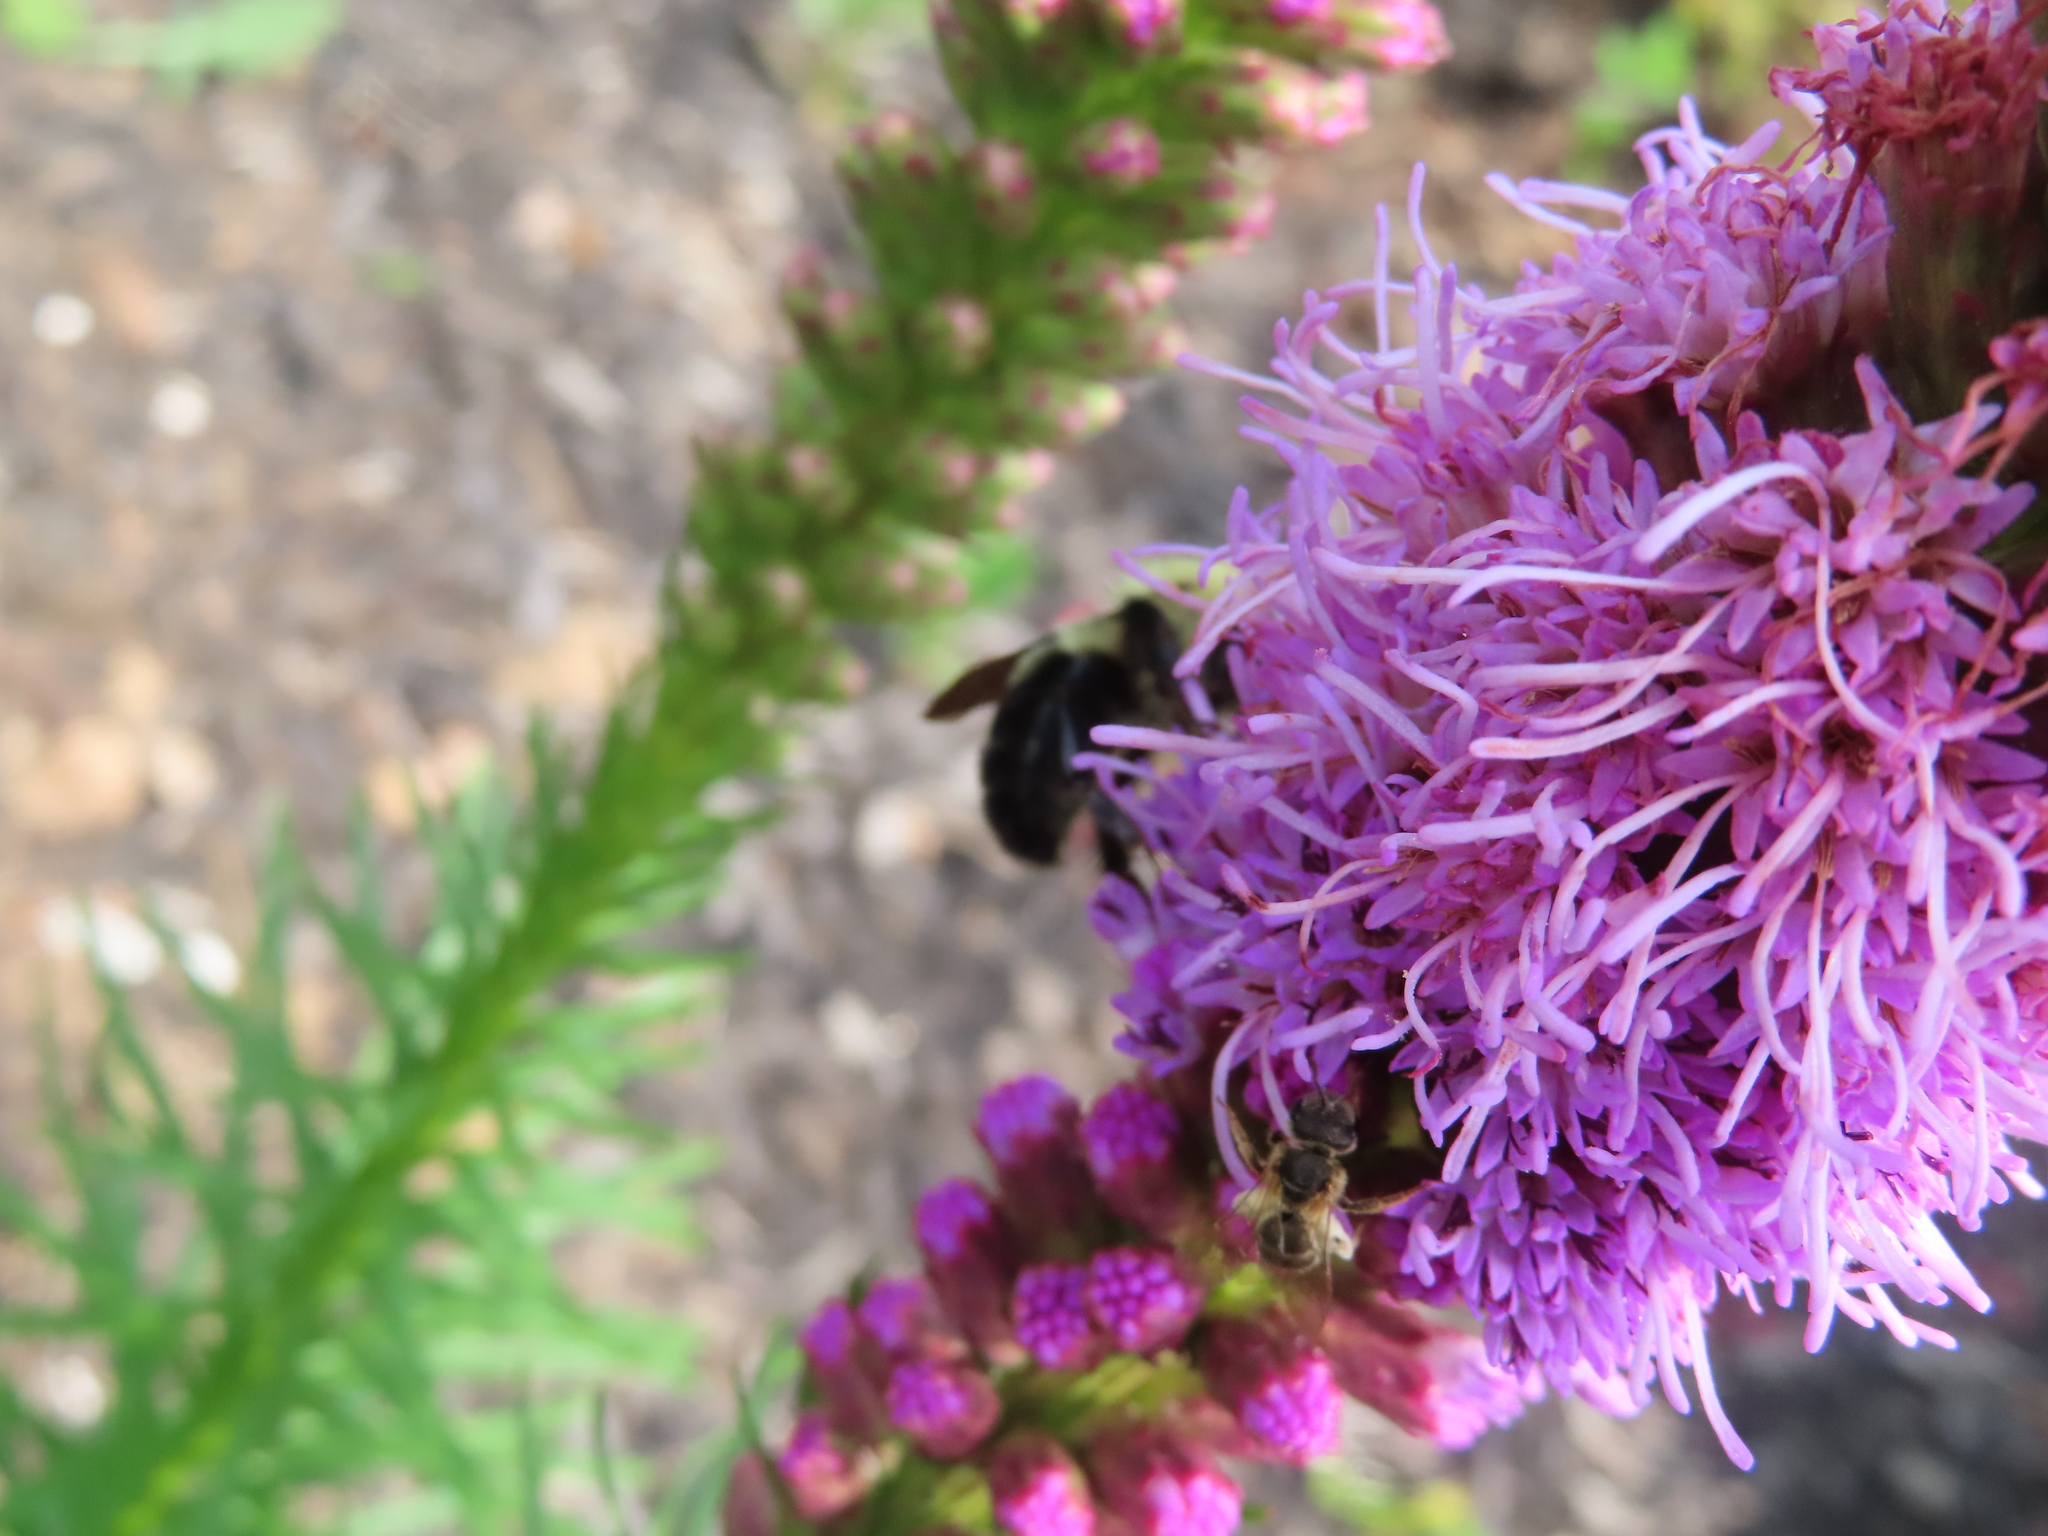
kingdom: Animalia
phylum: Arthropoda
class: Insecta
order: Hymenoptera
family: Apidae
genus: Bombus
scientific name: Bombus bimaculatus
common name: Two-spotted bumble bee
